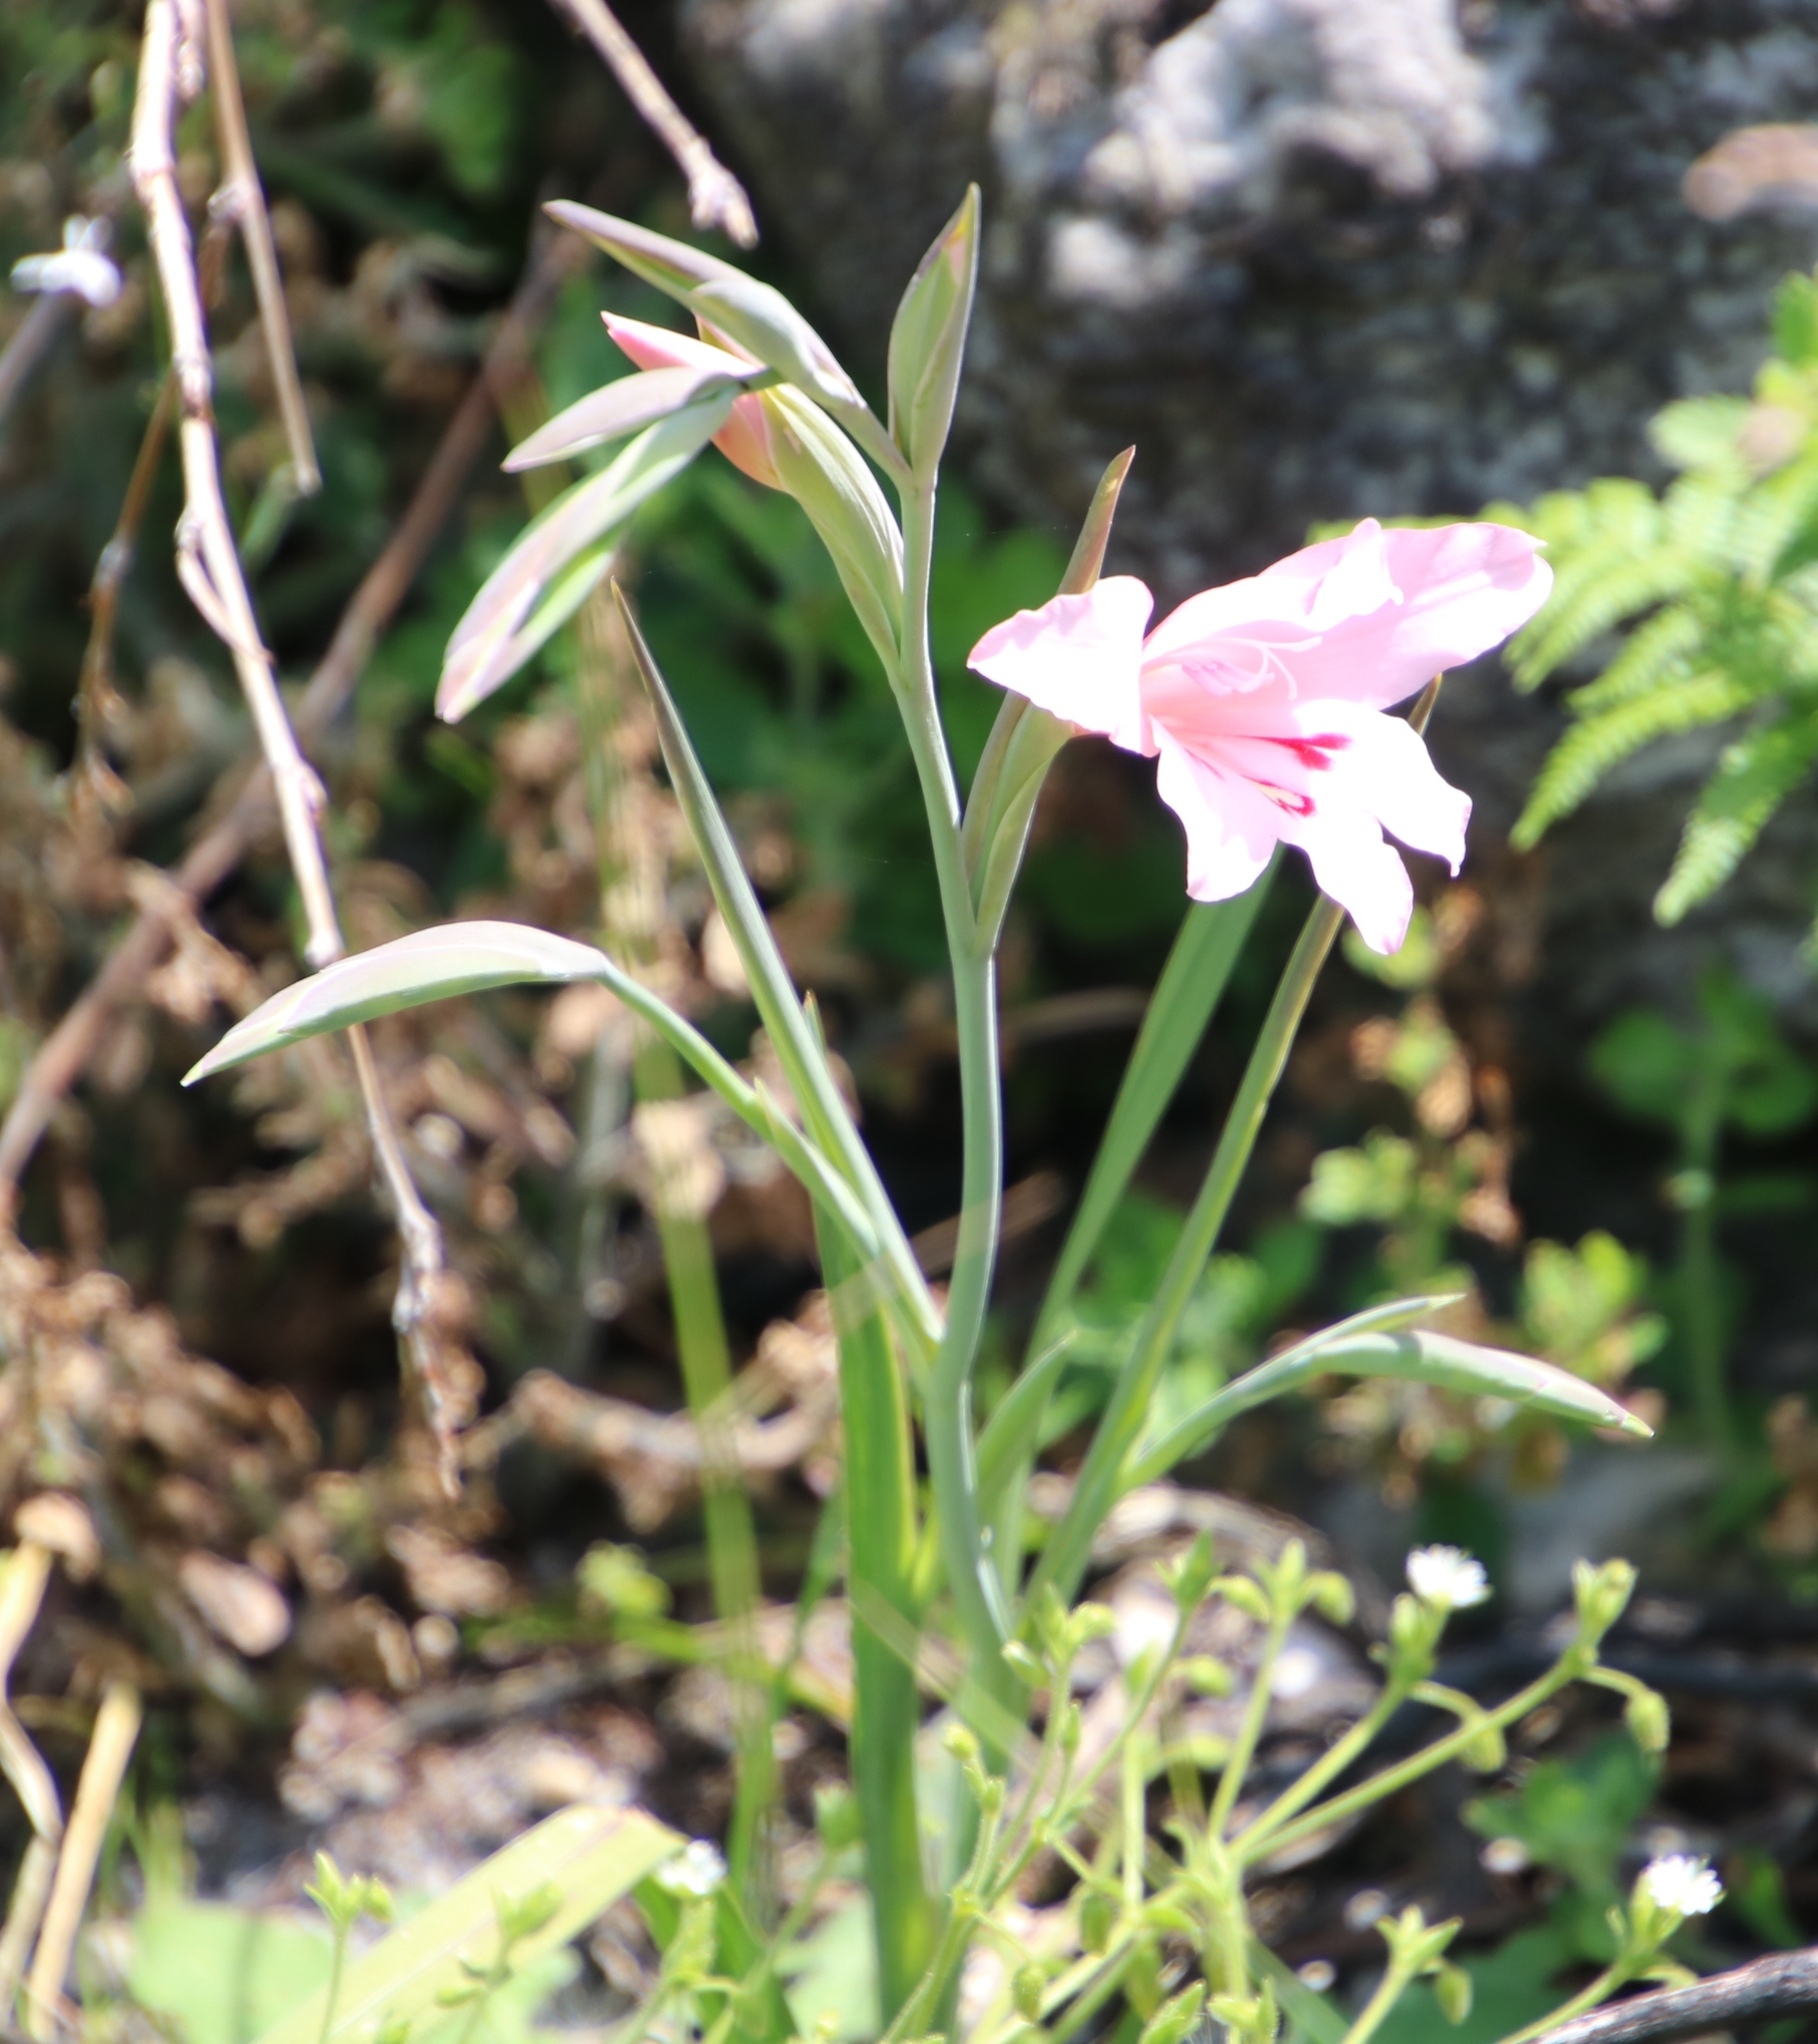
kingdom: Plantae
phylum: Tracheophyta
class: Liliopsida
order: Asparagales
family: Iridaceae
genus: Gladiolus
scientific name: Gladiolus carneus
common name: Painted-lady
